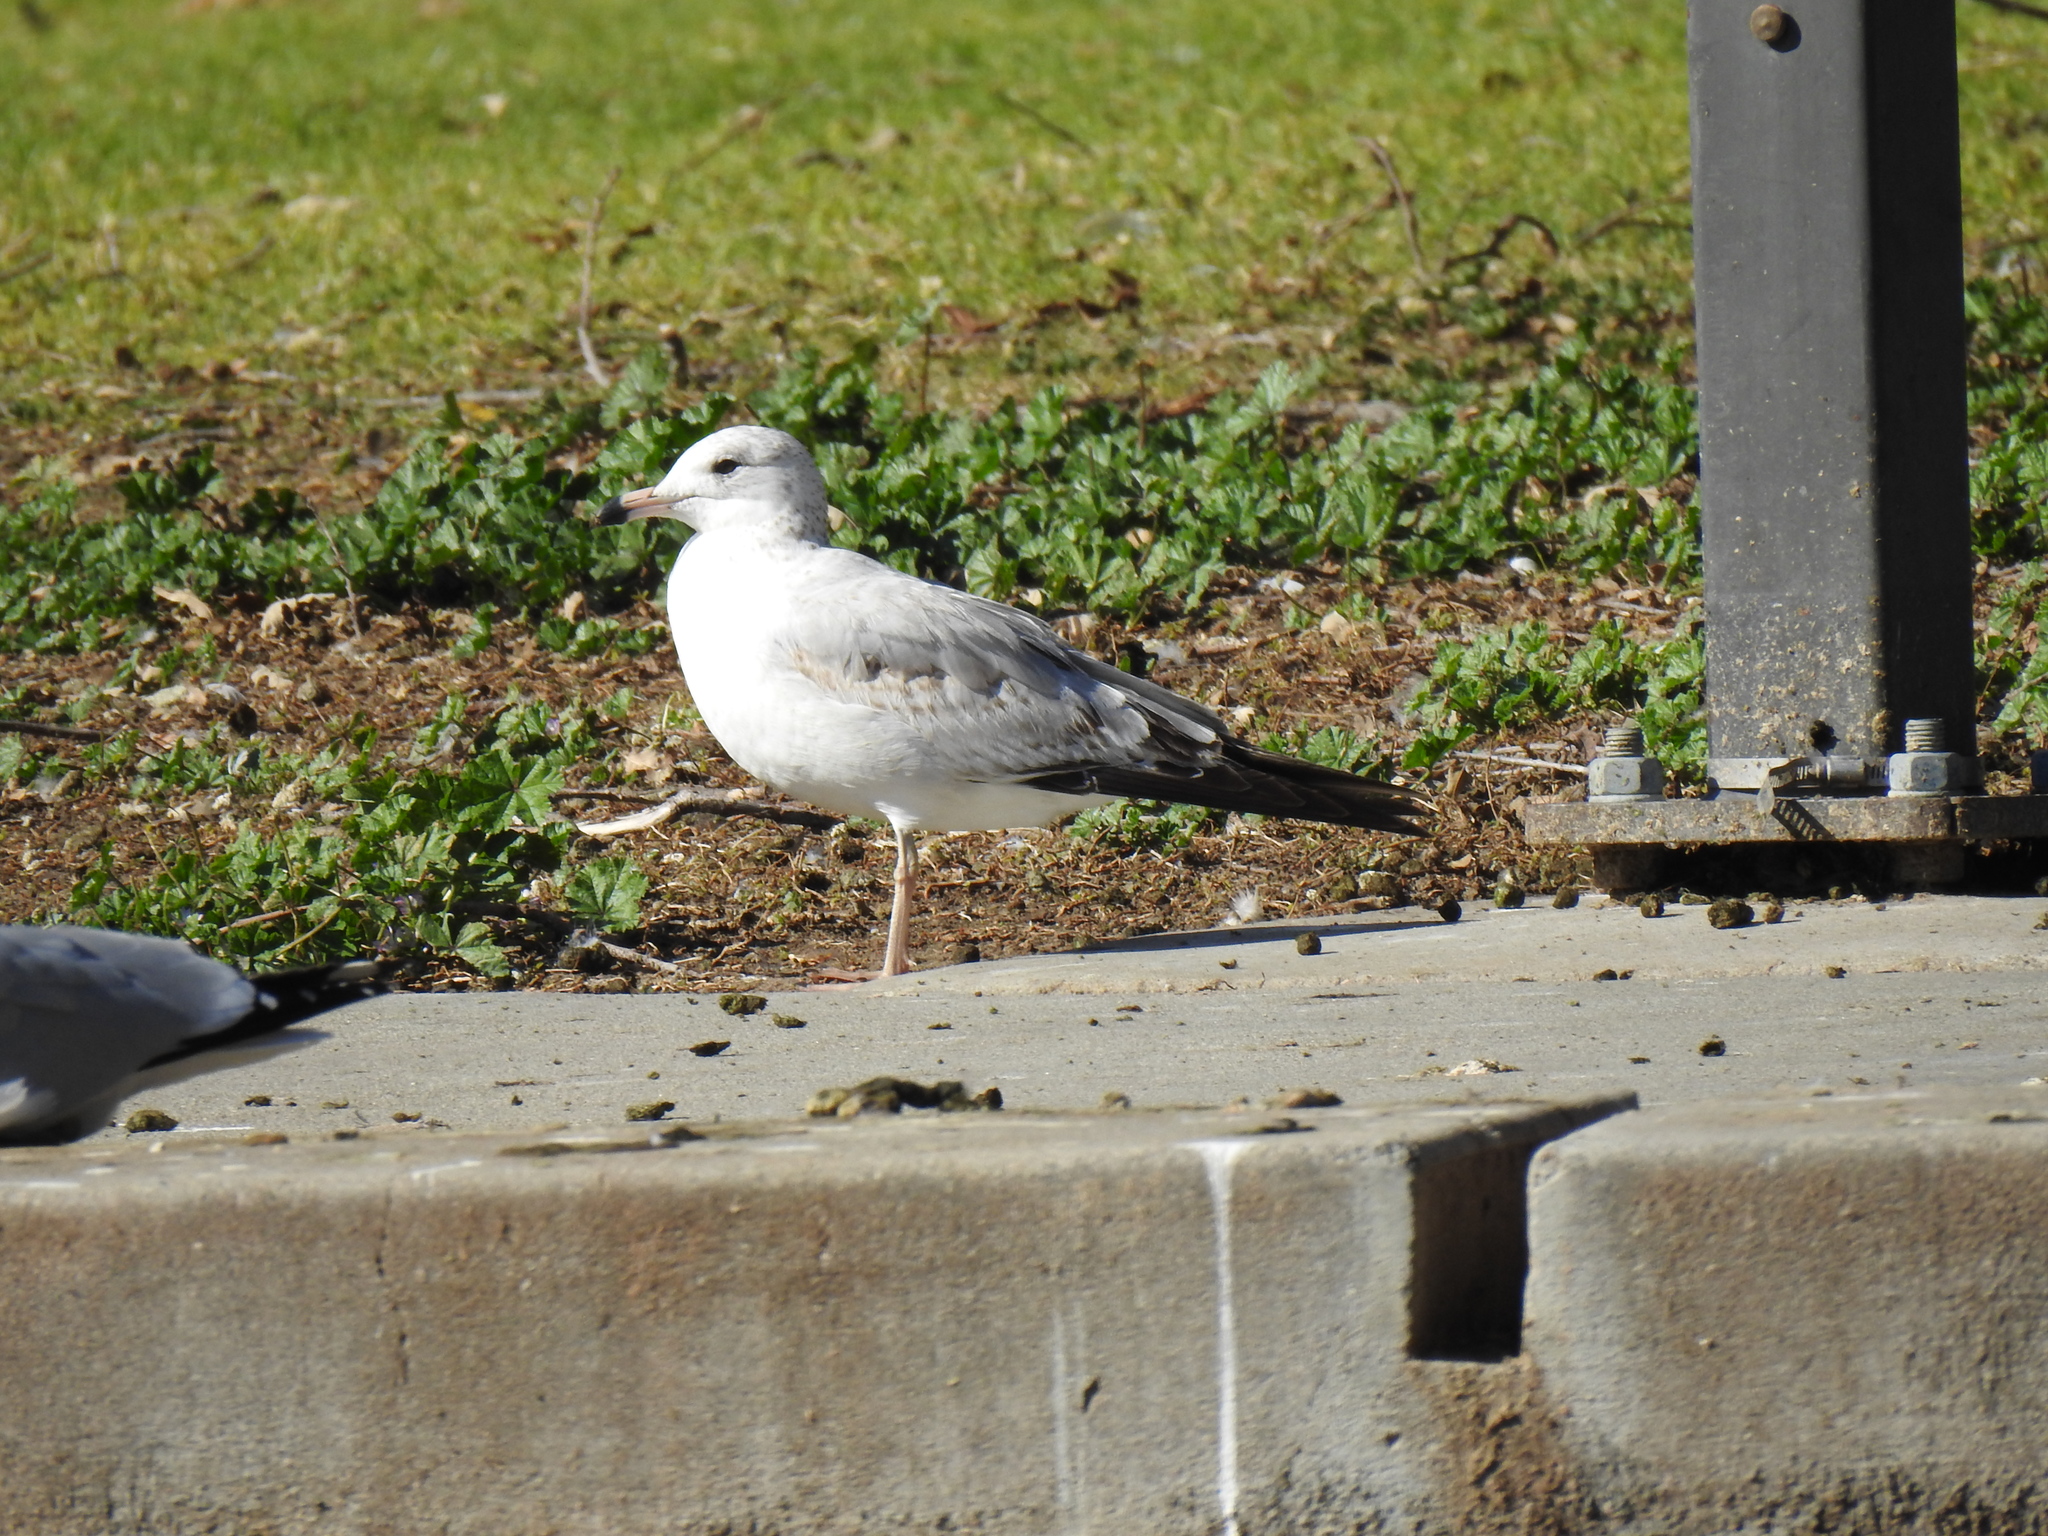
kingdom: Animalia
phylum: Chordata
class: Aves
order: Charadriiformes
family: Laridae
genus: Larus
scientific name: Larus delawarensis
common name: Ring-billed gull
